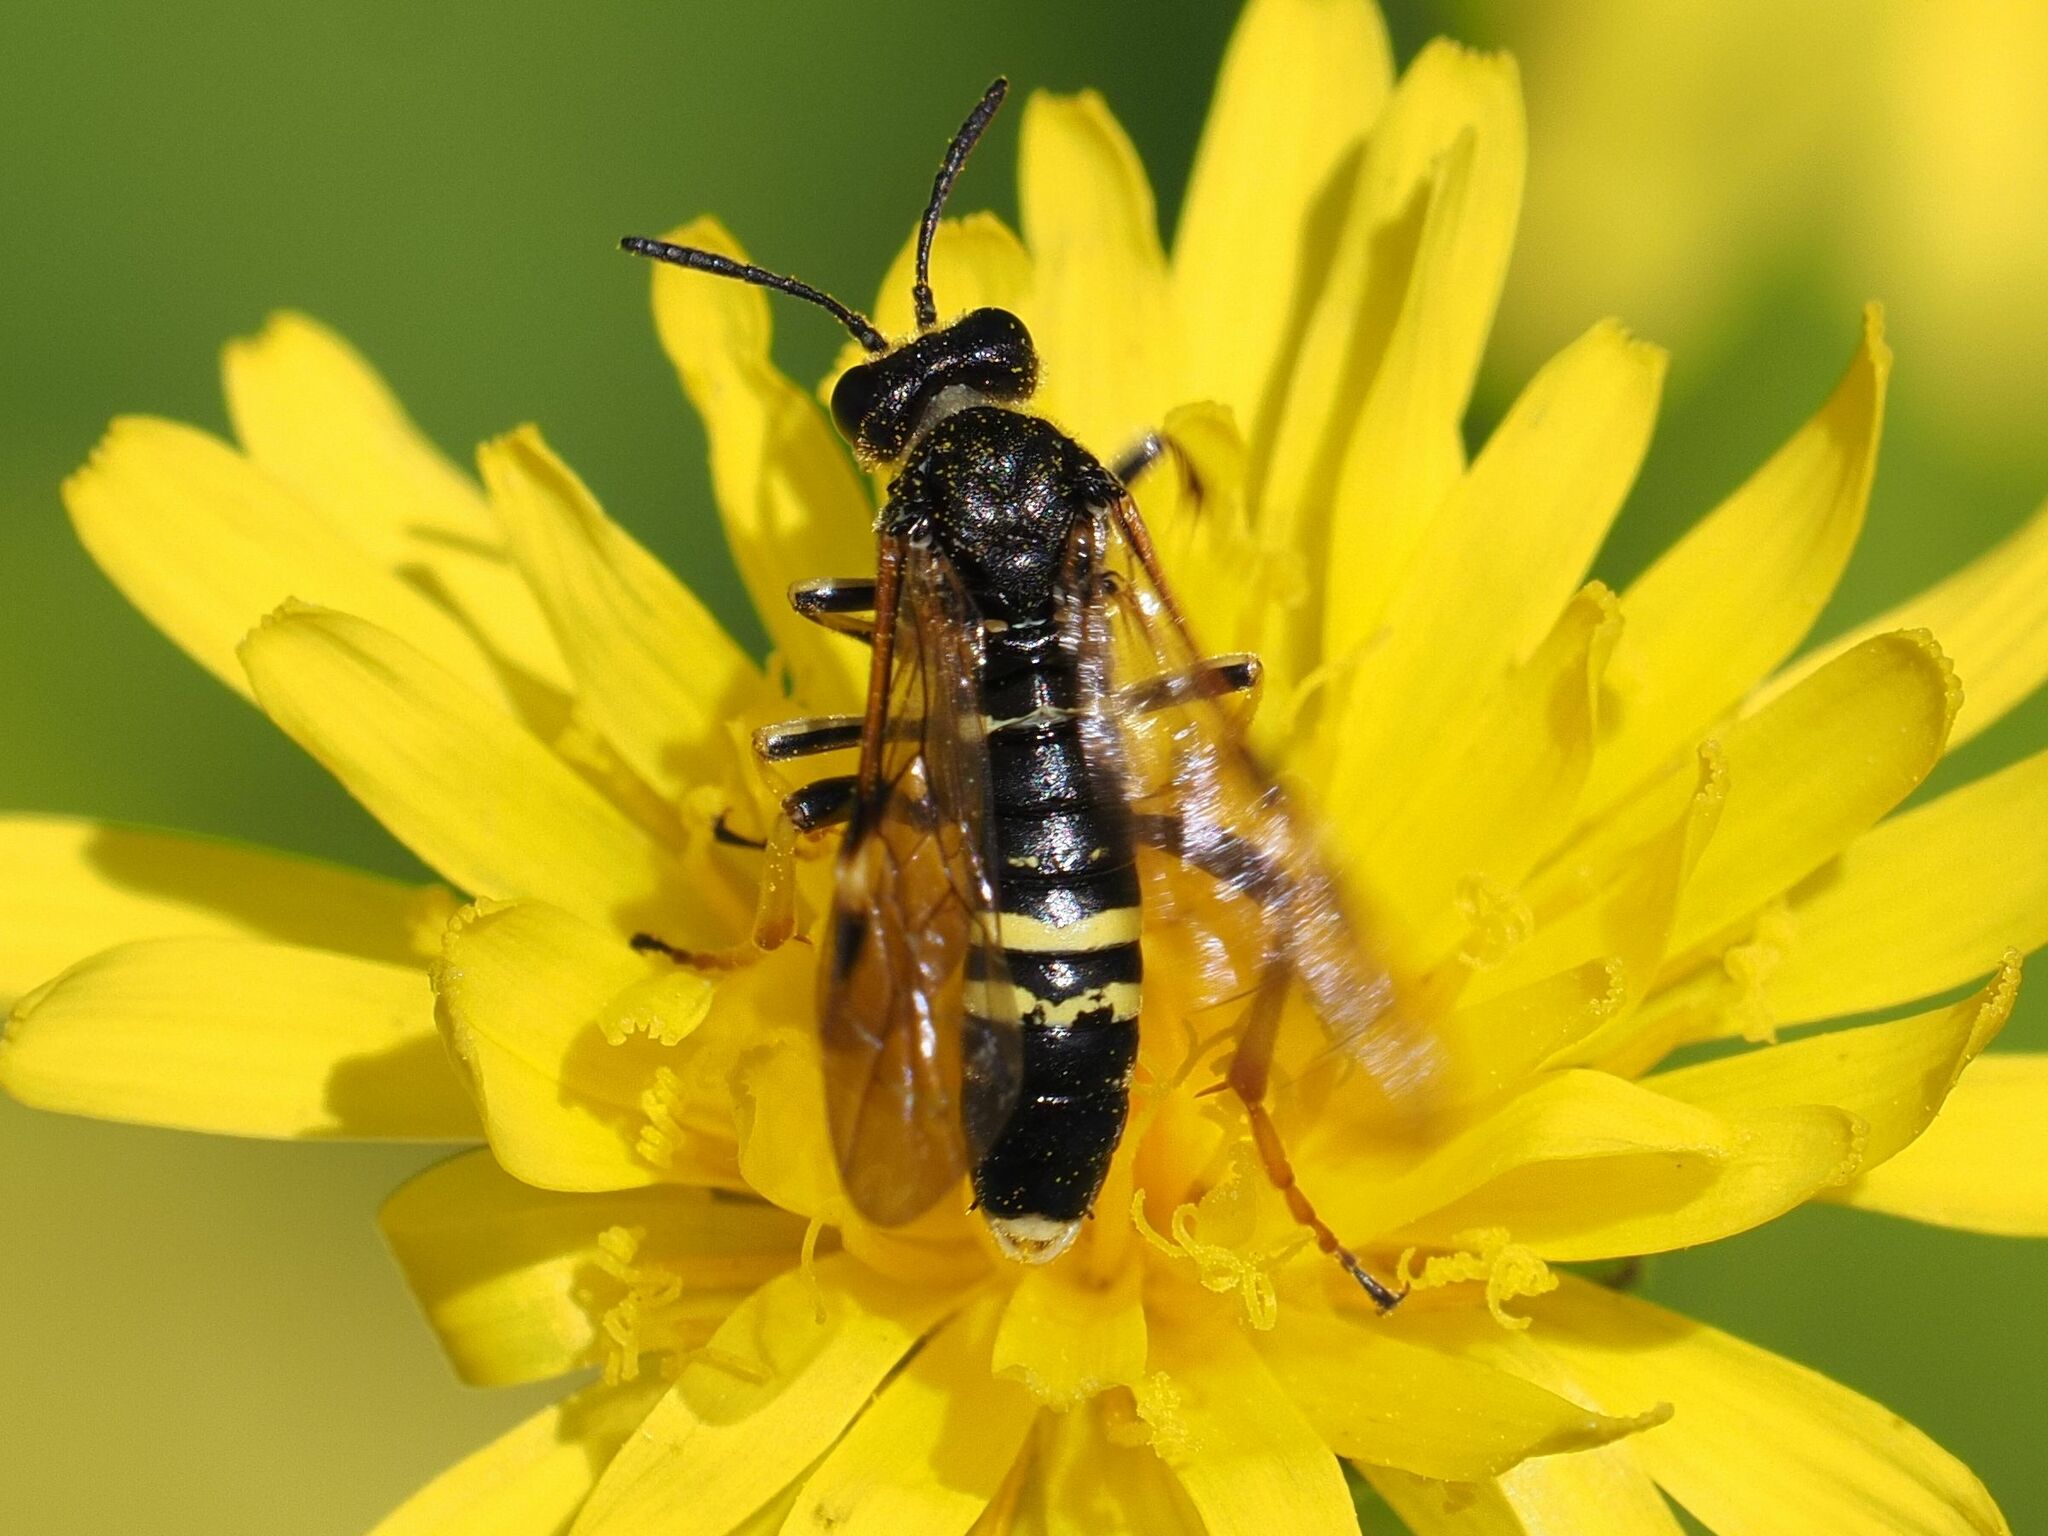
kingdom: Animalia
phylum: Arthropoda
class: Insecta
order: Hymenoptera
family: Tenthredinidae
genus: Tenthredo
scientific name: Tenthredo koehleri
